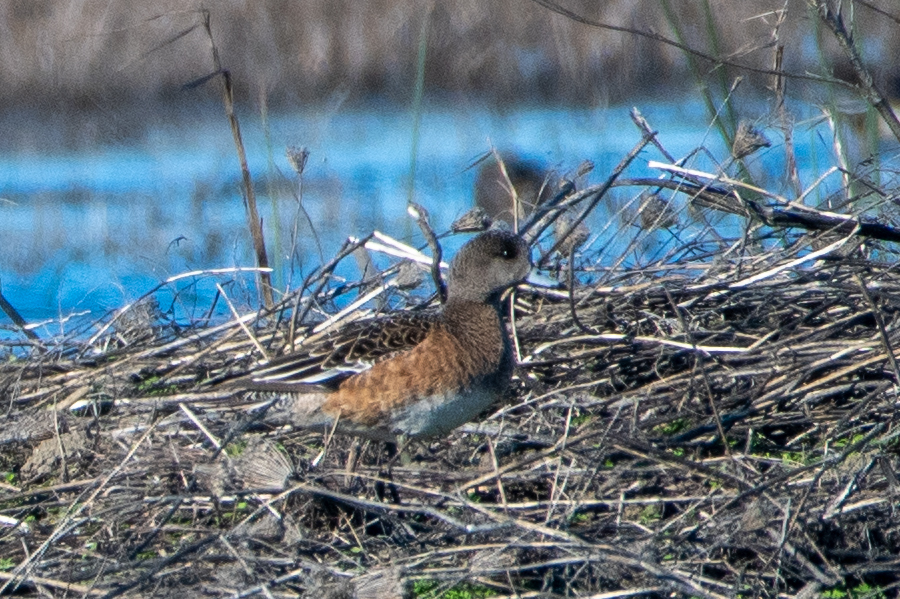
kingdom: Animalia
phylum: Chordata
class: Aves
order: Anseriformes
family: Anatidae
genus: Mareca
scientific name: Mareca americana
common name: American wigeon
